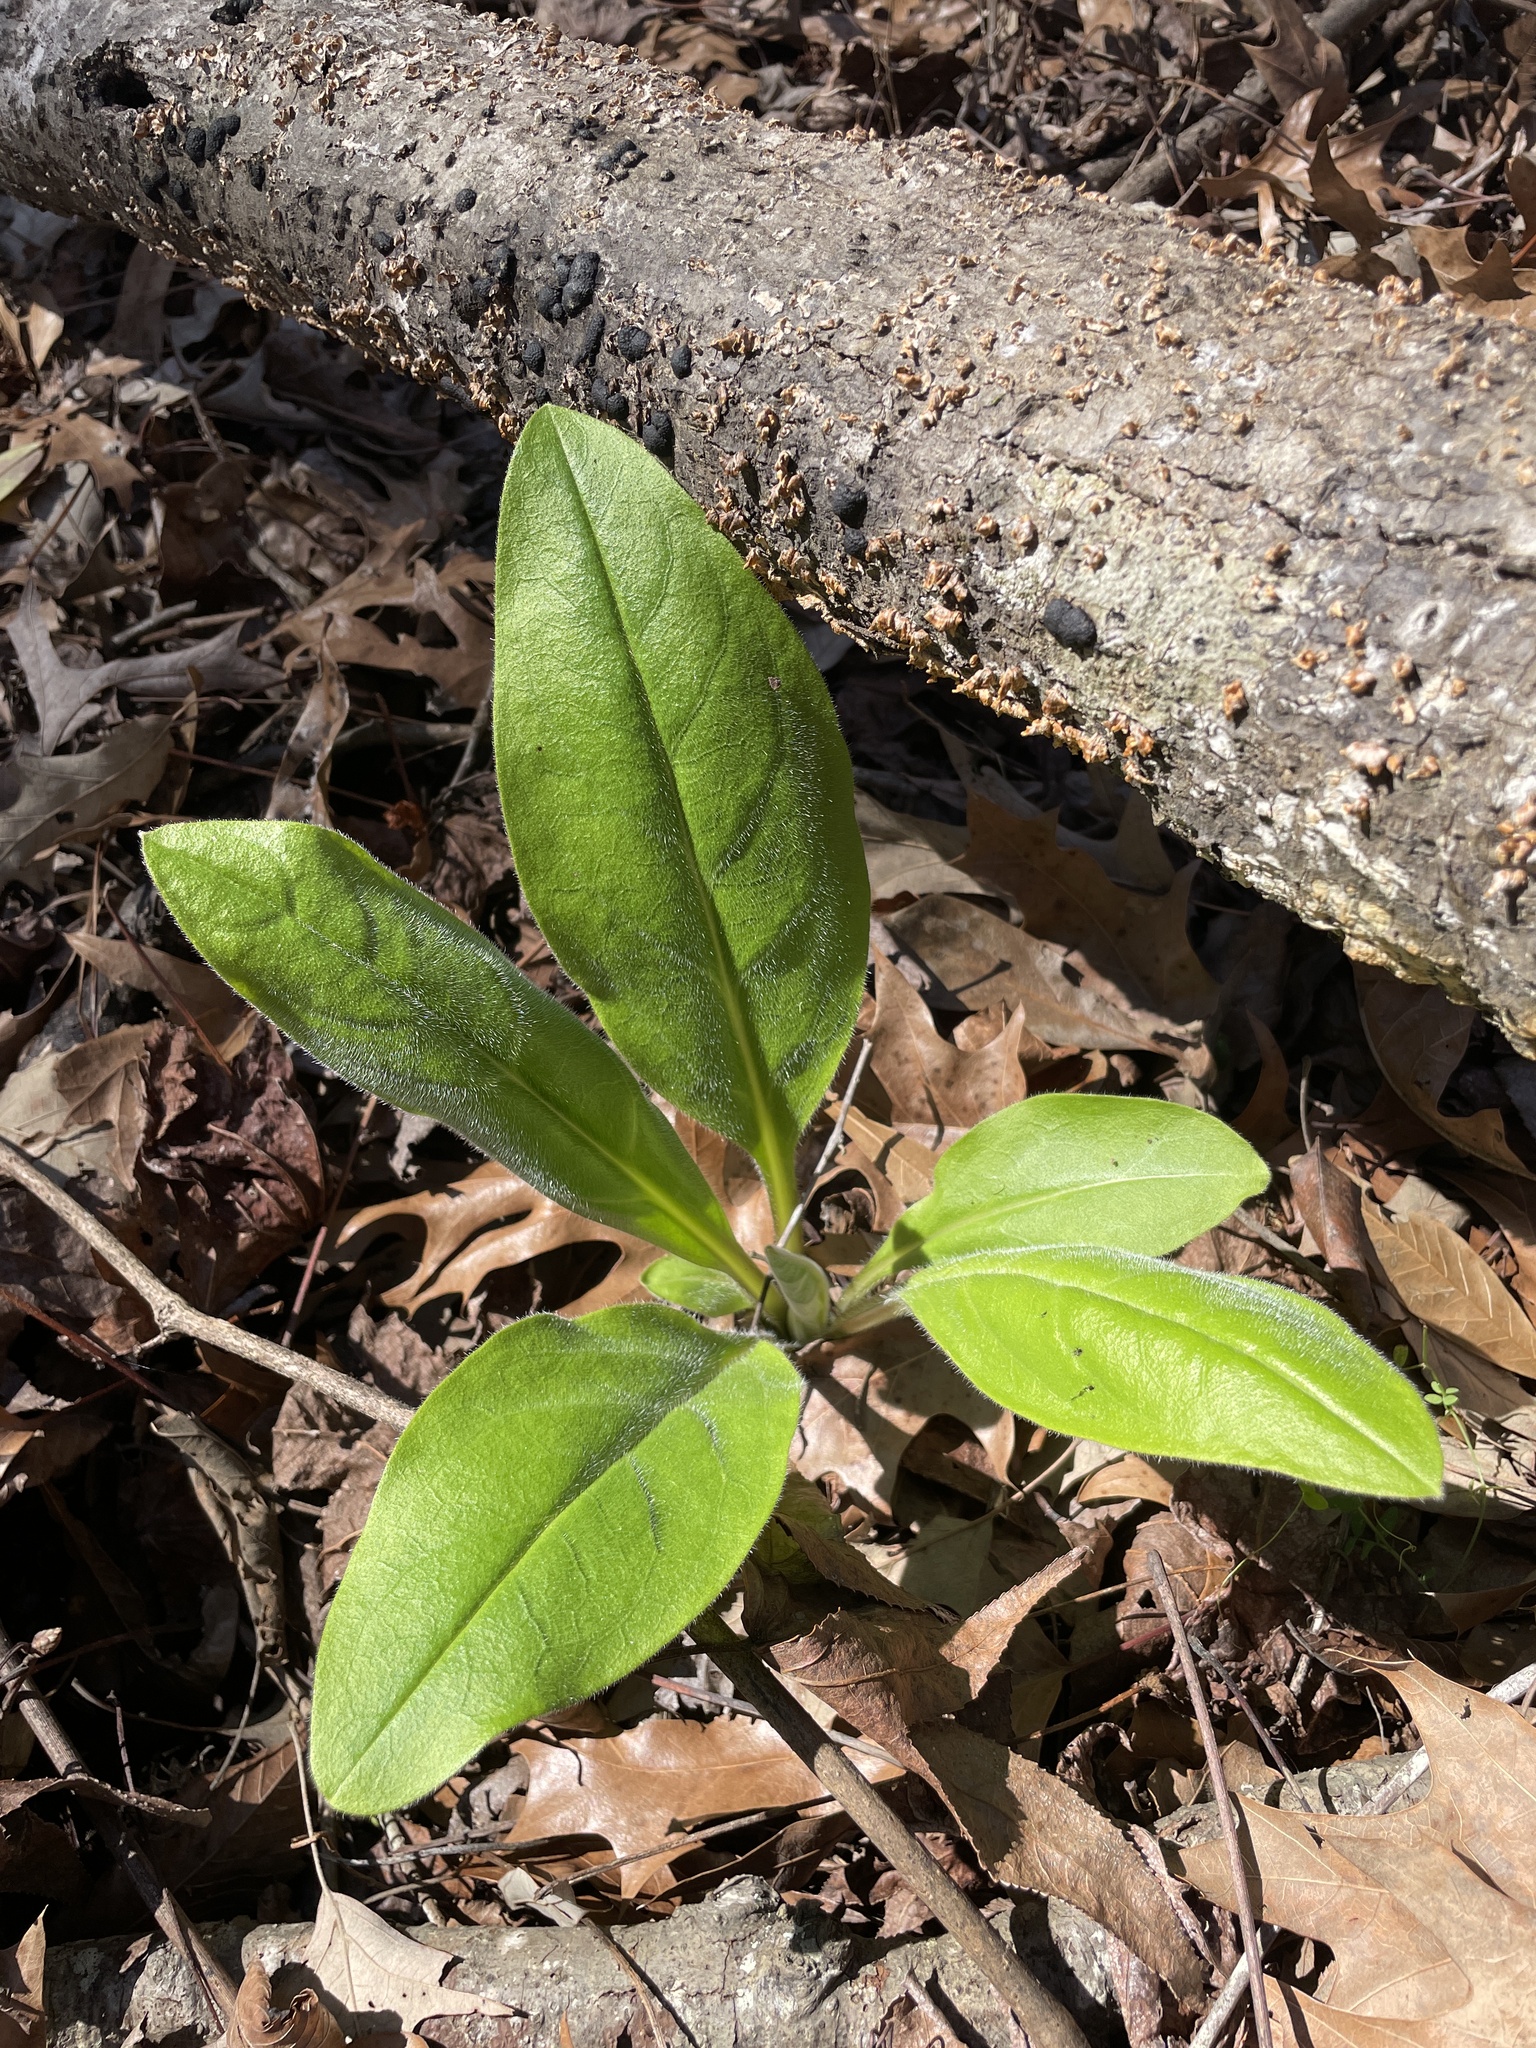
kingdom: Plantae
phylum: Tracheophyta
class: Magnoliopsida
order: Boraginales
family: Boraginaceae
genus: Andersonglossum
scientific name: Andersonglossum virginianum
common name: Wild comfrey
